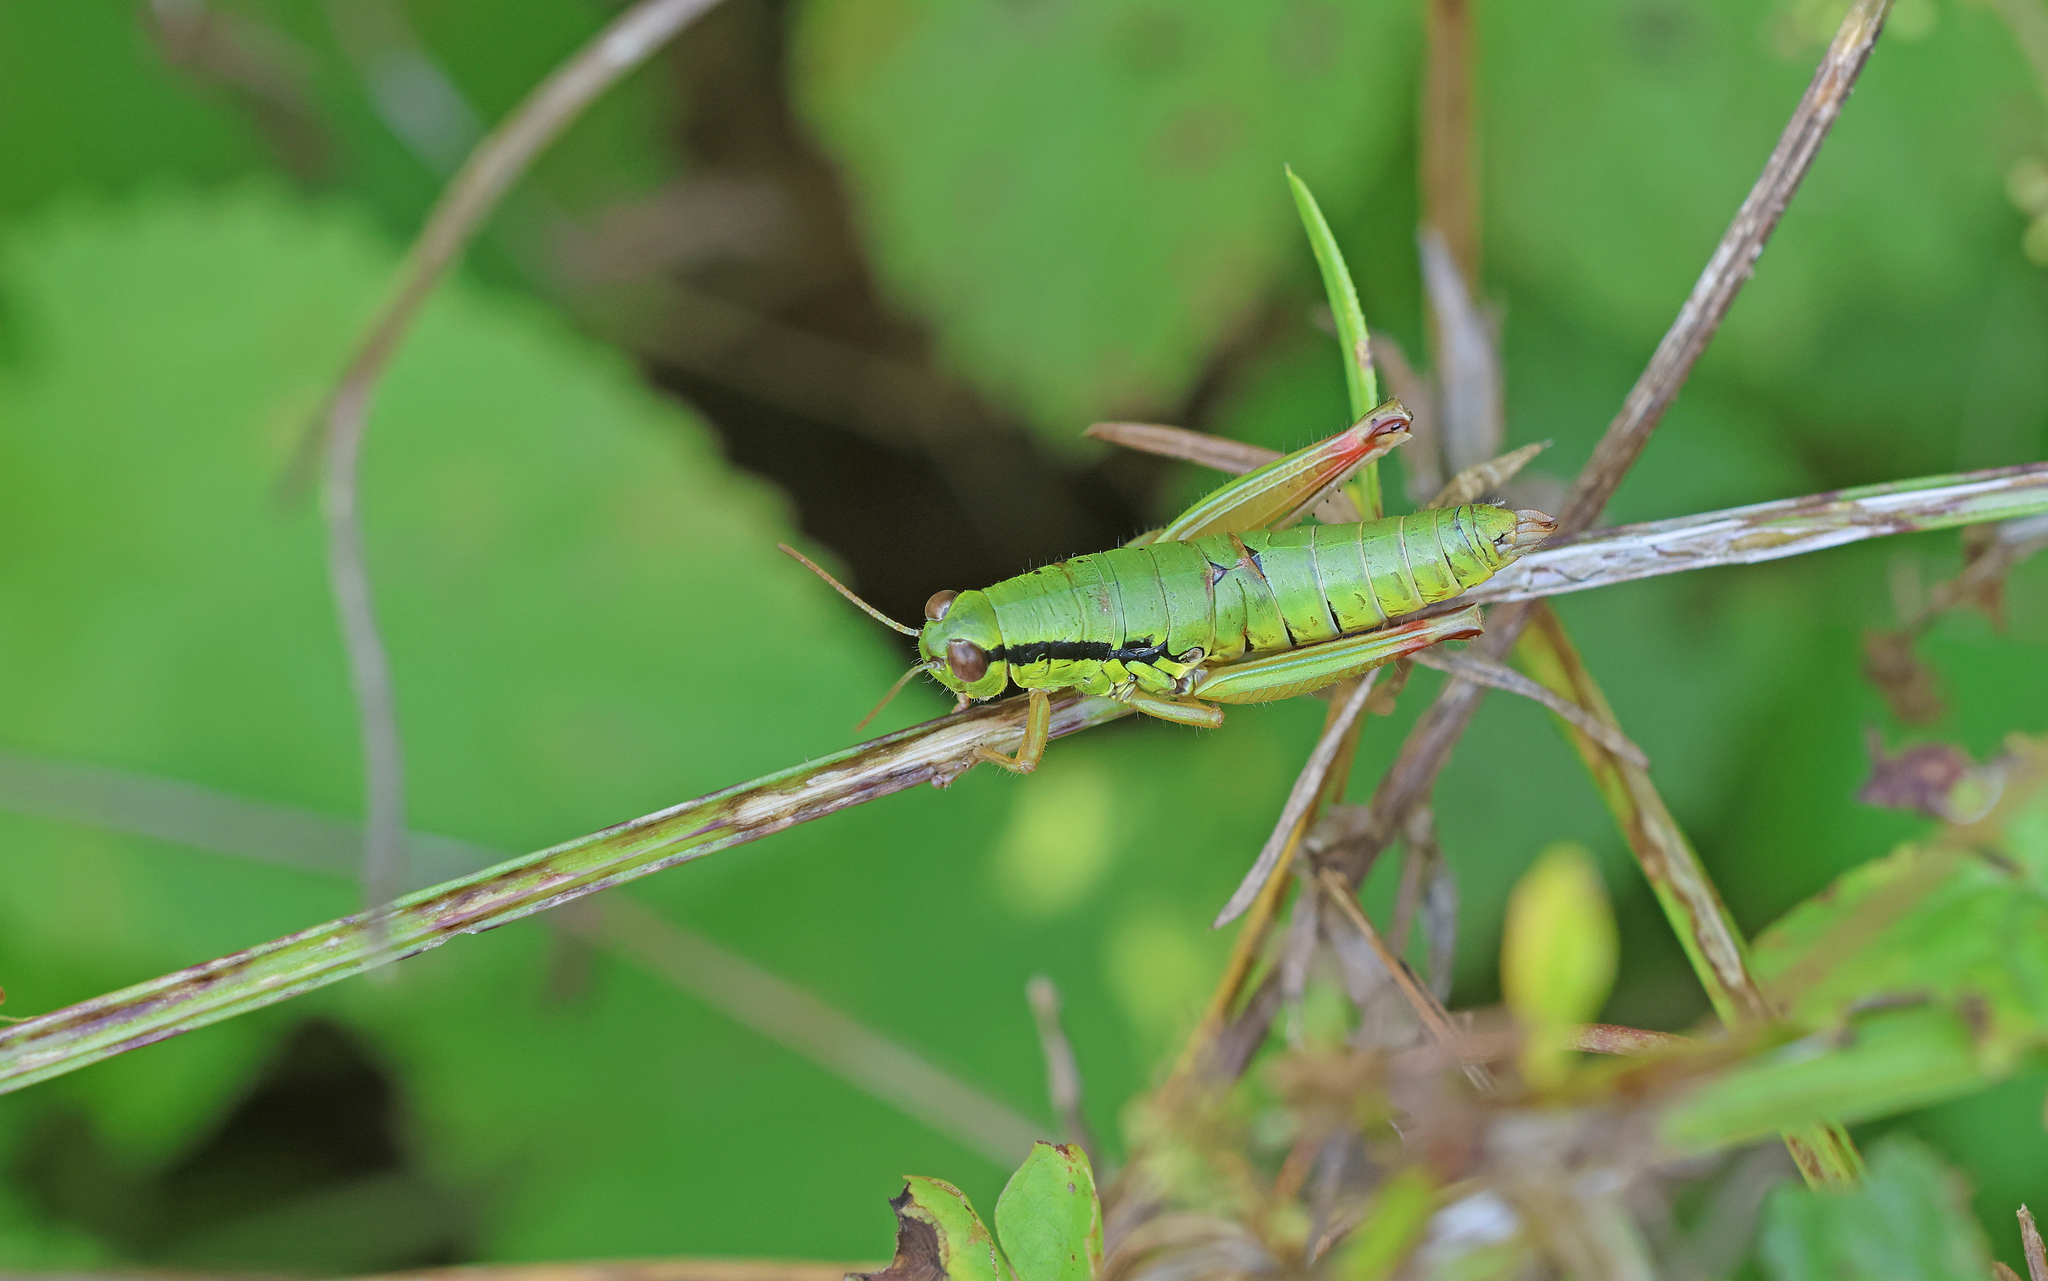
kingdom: Animalia
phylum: Arthropoda
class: Insecta
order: Orthoptera
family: Acrididae
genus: Micropodisma
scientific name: Micropodisma salamandra
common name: Foothill mountain grasshopper
